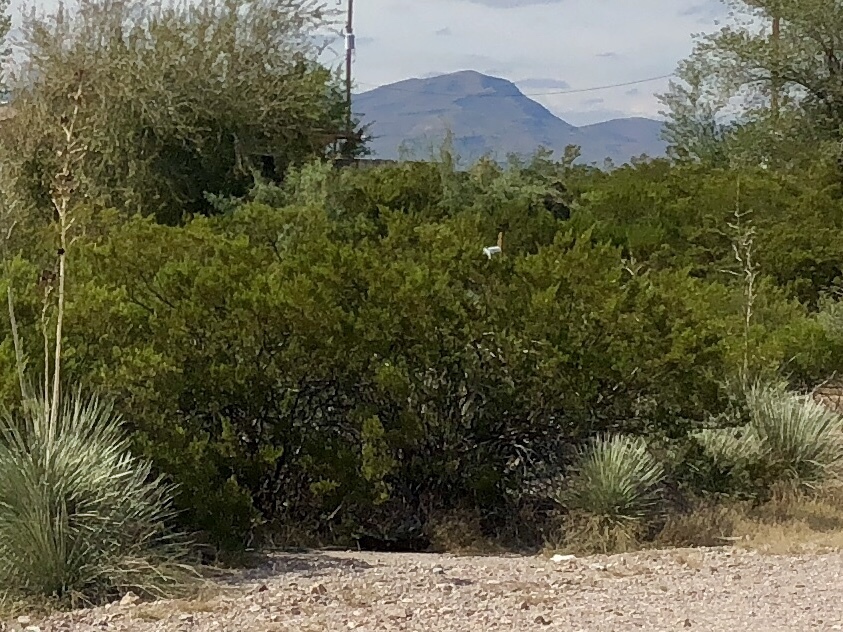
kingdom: Plantae
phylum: Tracheophyta
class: Magnoliopsida
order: Zygophyllales
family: Zygophyllaceae
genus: Larrea
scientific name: Larrea tridentata
